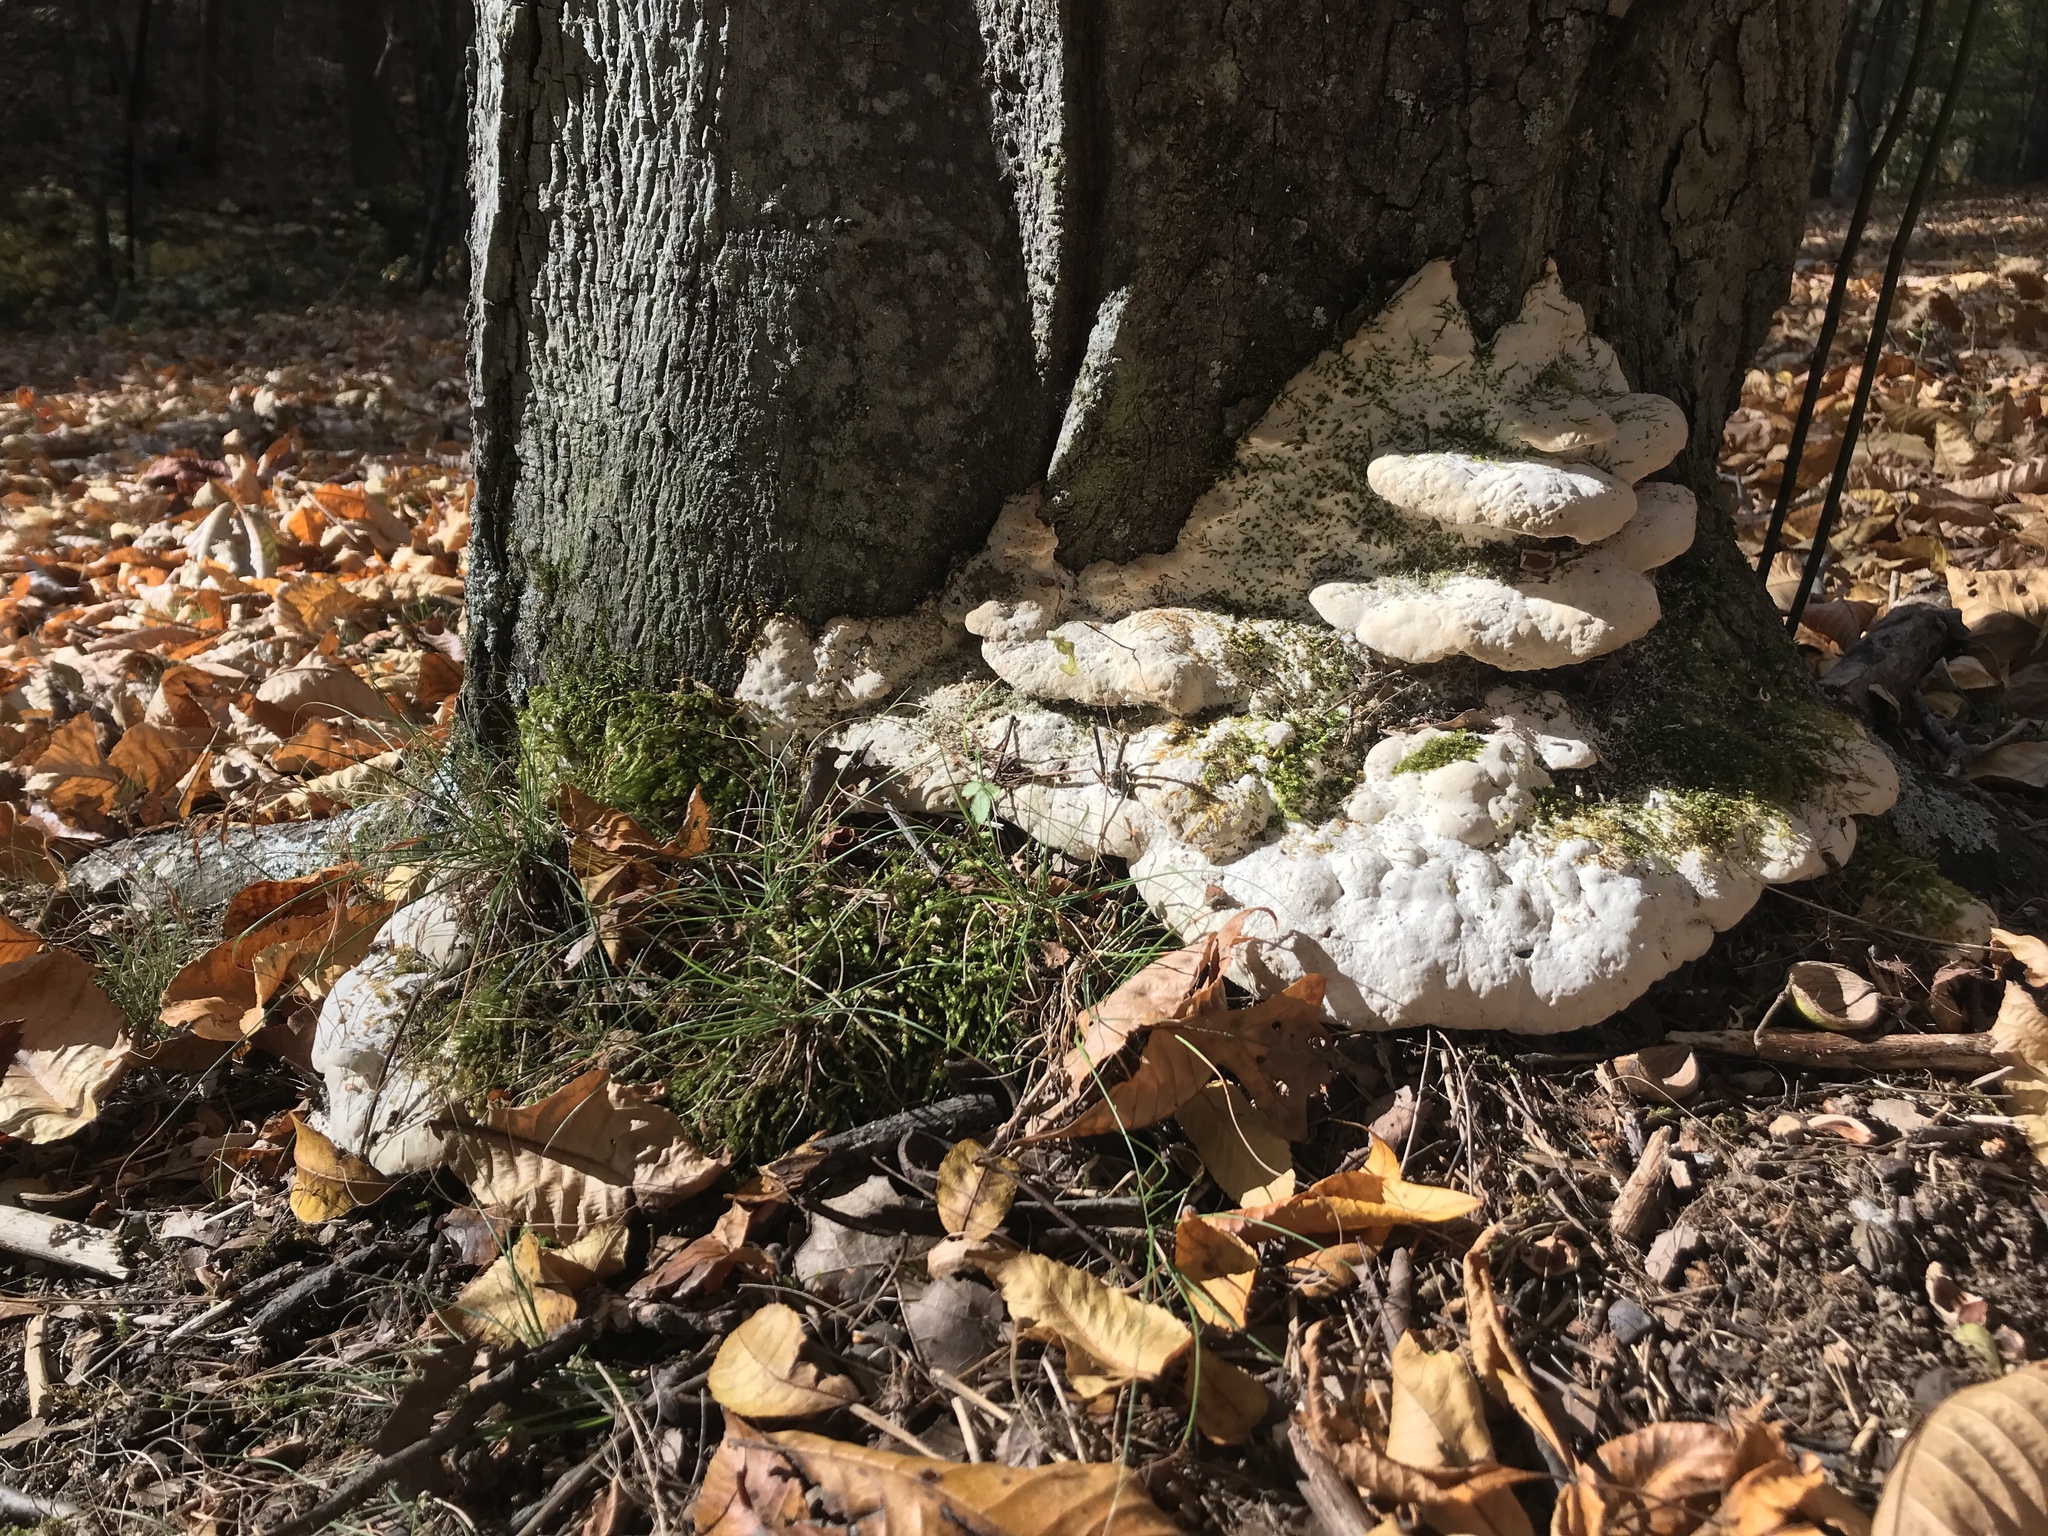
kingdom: Fungi
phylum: Basidiomycota
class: Agaricomycetes
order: Hymenochaetales
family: Oxyporaceae
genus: Oxyporus
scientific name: Oxyporus populinus
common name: Poplar bracket
